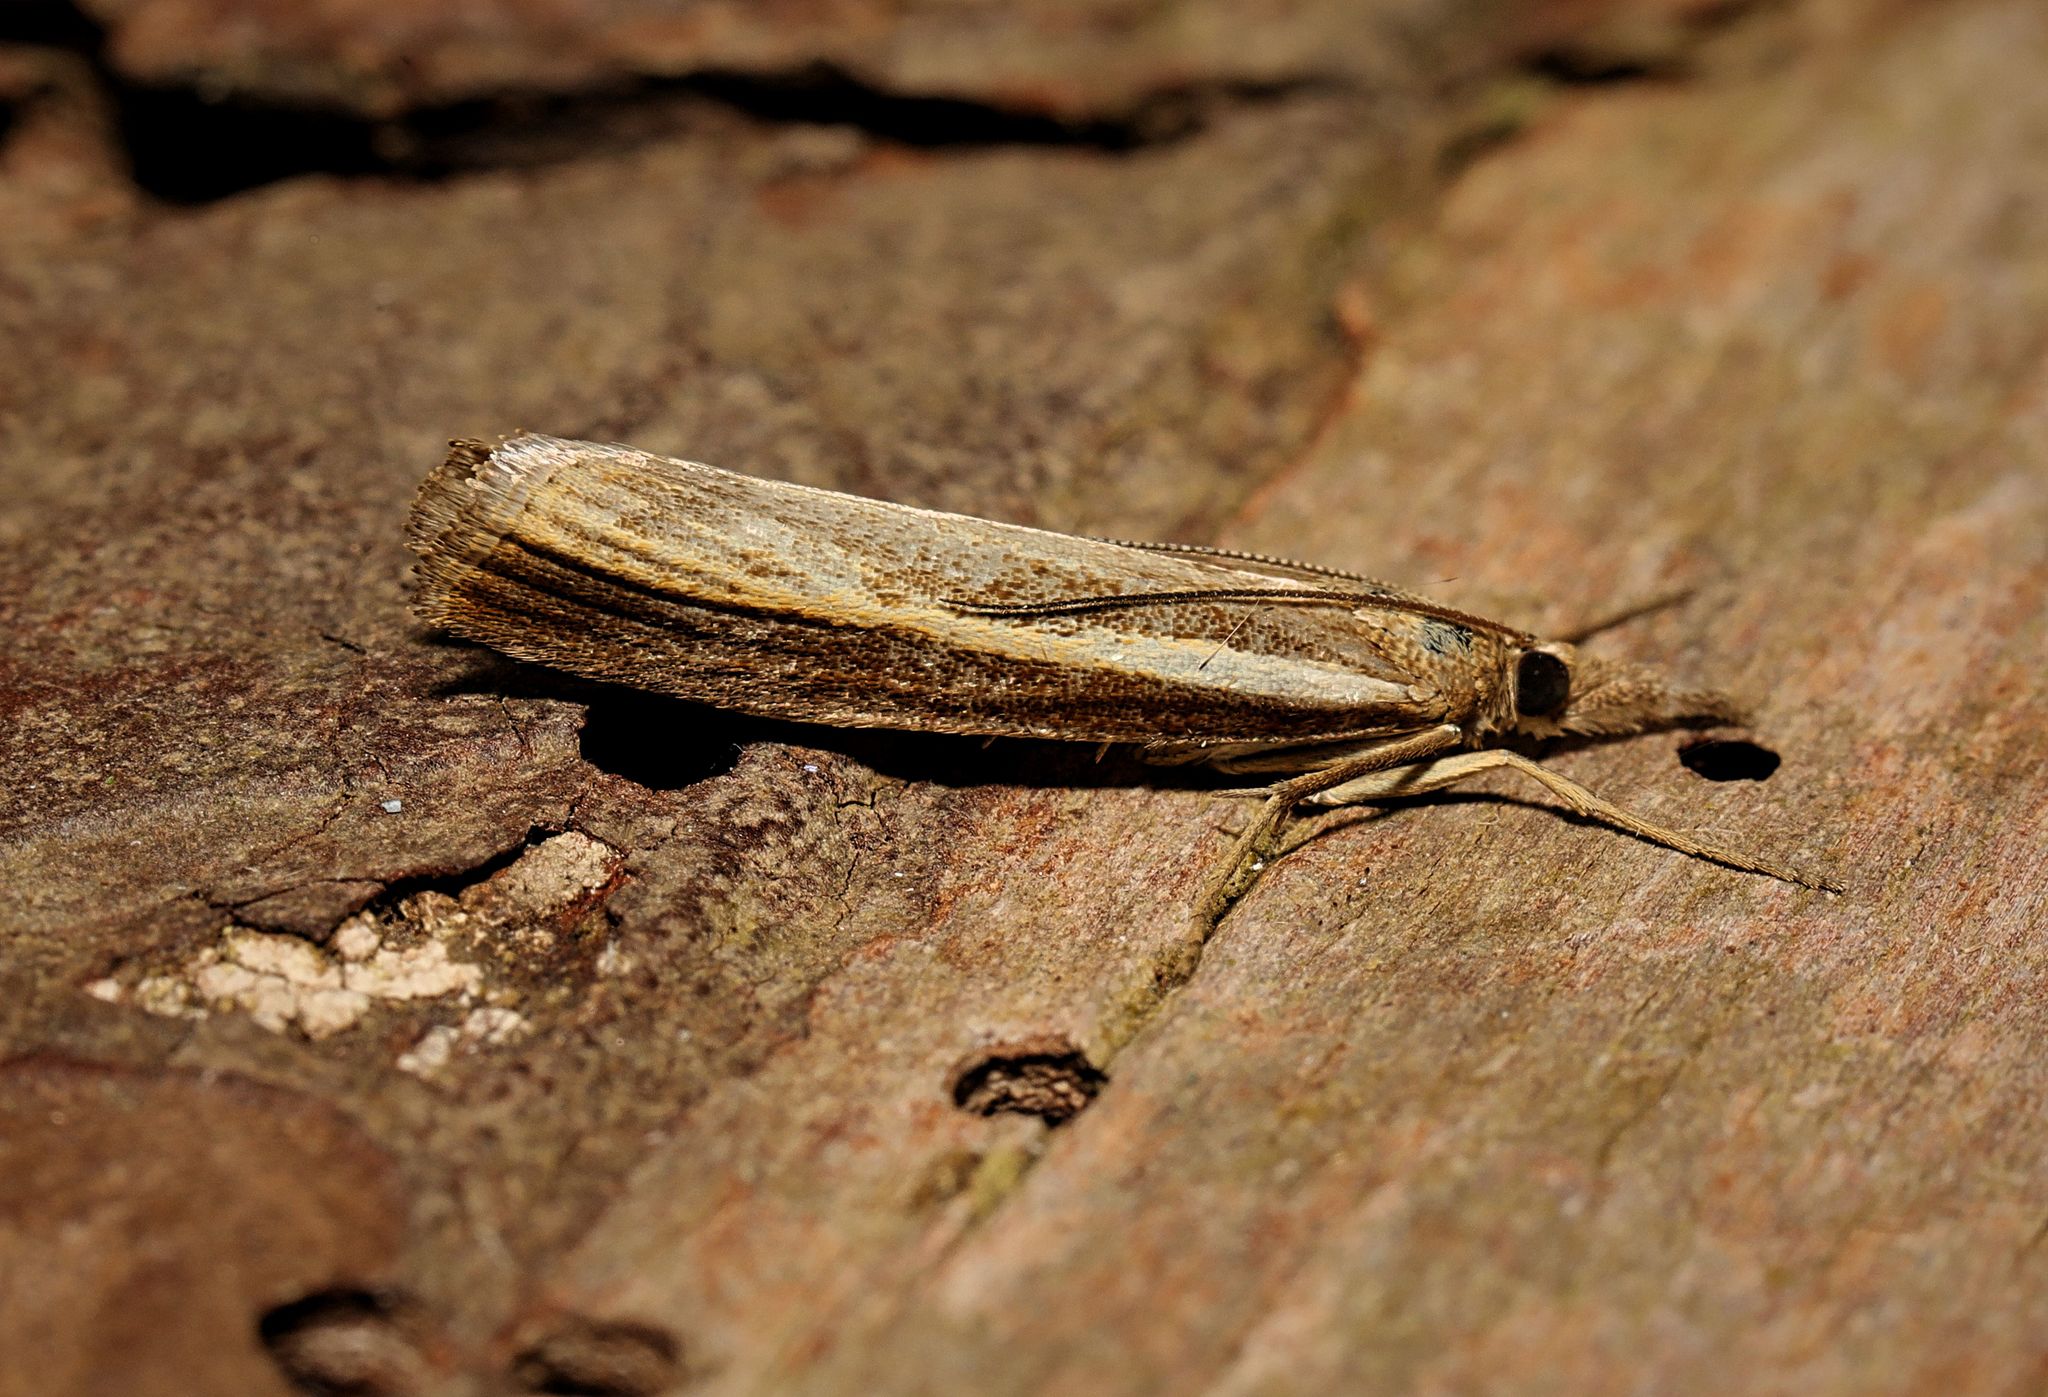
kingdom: Animalia
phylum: Arthropoda
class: Insecta
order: Lepidoptera
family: Crambidae
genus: Agriphila
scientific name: Agriphila tristellus
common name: Common grass-veneer
